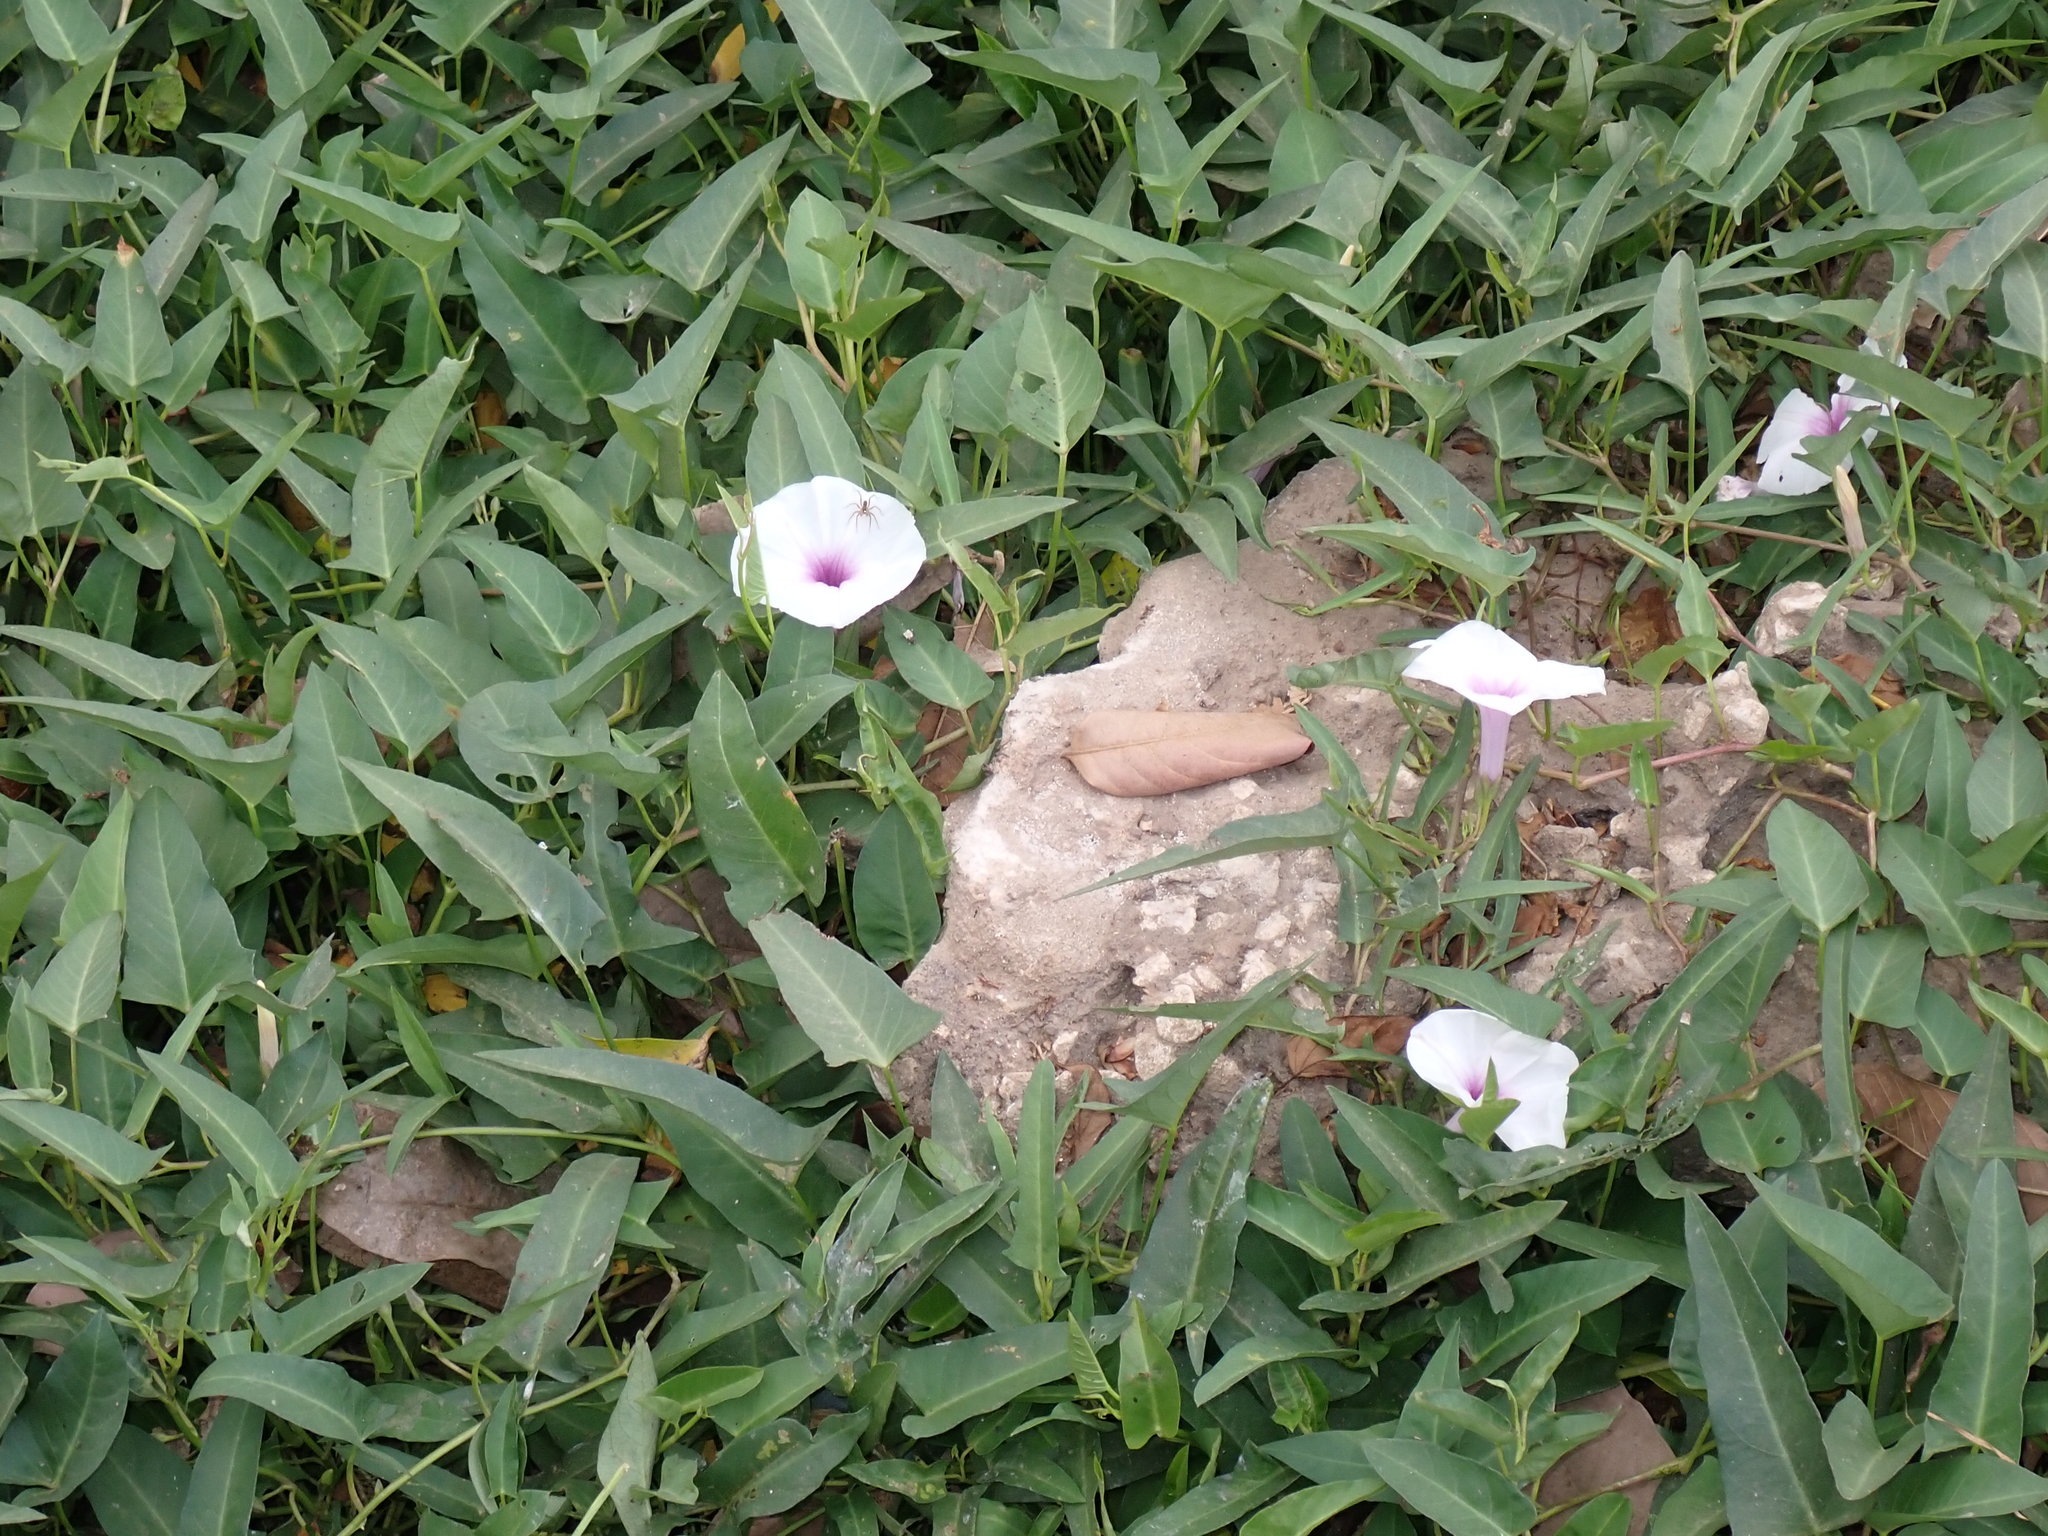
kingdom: Plantae
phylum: Tracheophyta
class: Magnoliopsida
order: Solanales
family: Convolvulaceae
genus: Ipomoea
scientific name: Ipomoea aquatica
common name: Swamp morning-glory
